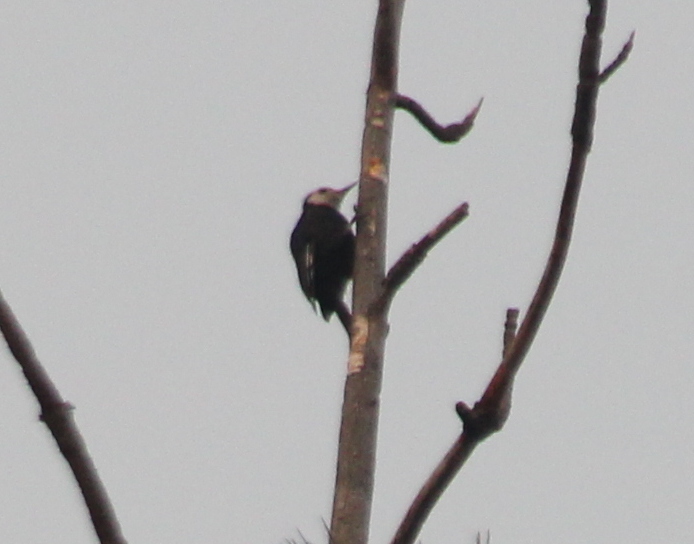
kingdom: Animalia
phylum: Chordata
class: Aves
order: Piciformes
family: Picidae
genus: Leuconotopicus
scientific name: Leuconotopicus albolarvatus
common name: White-headed woodpecker
